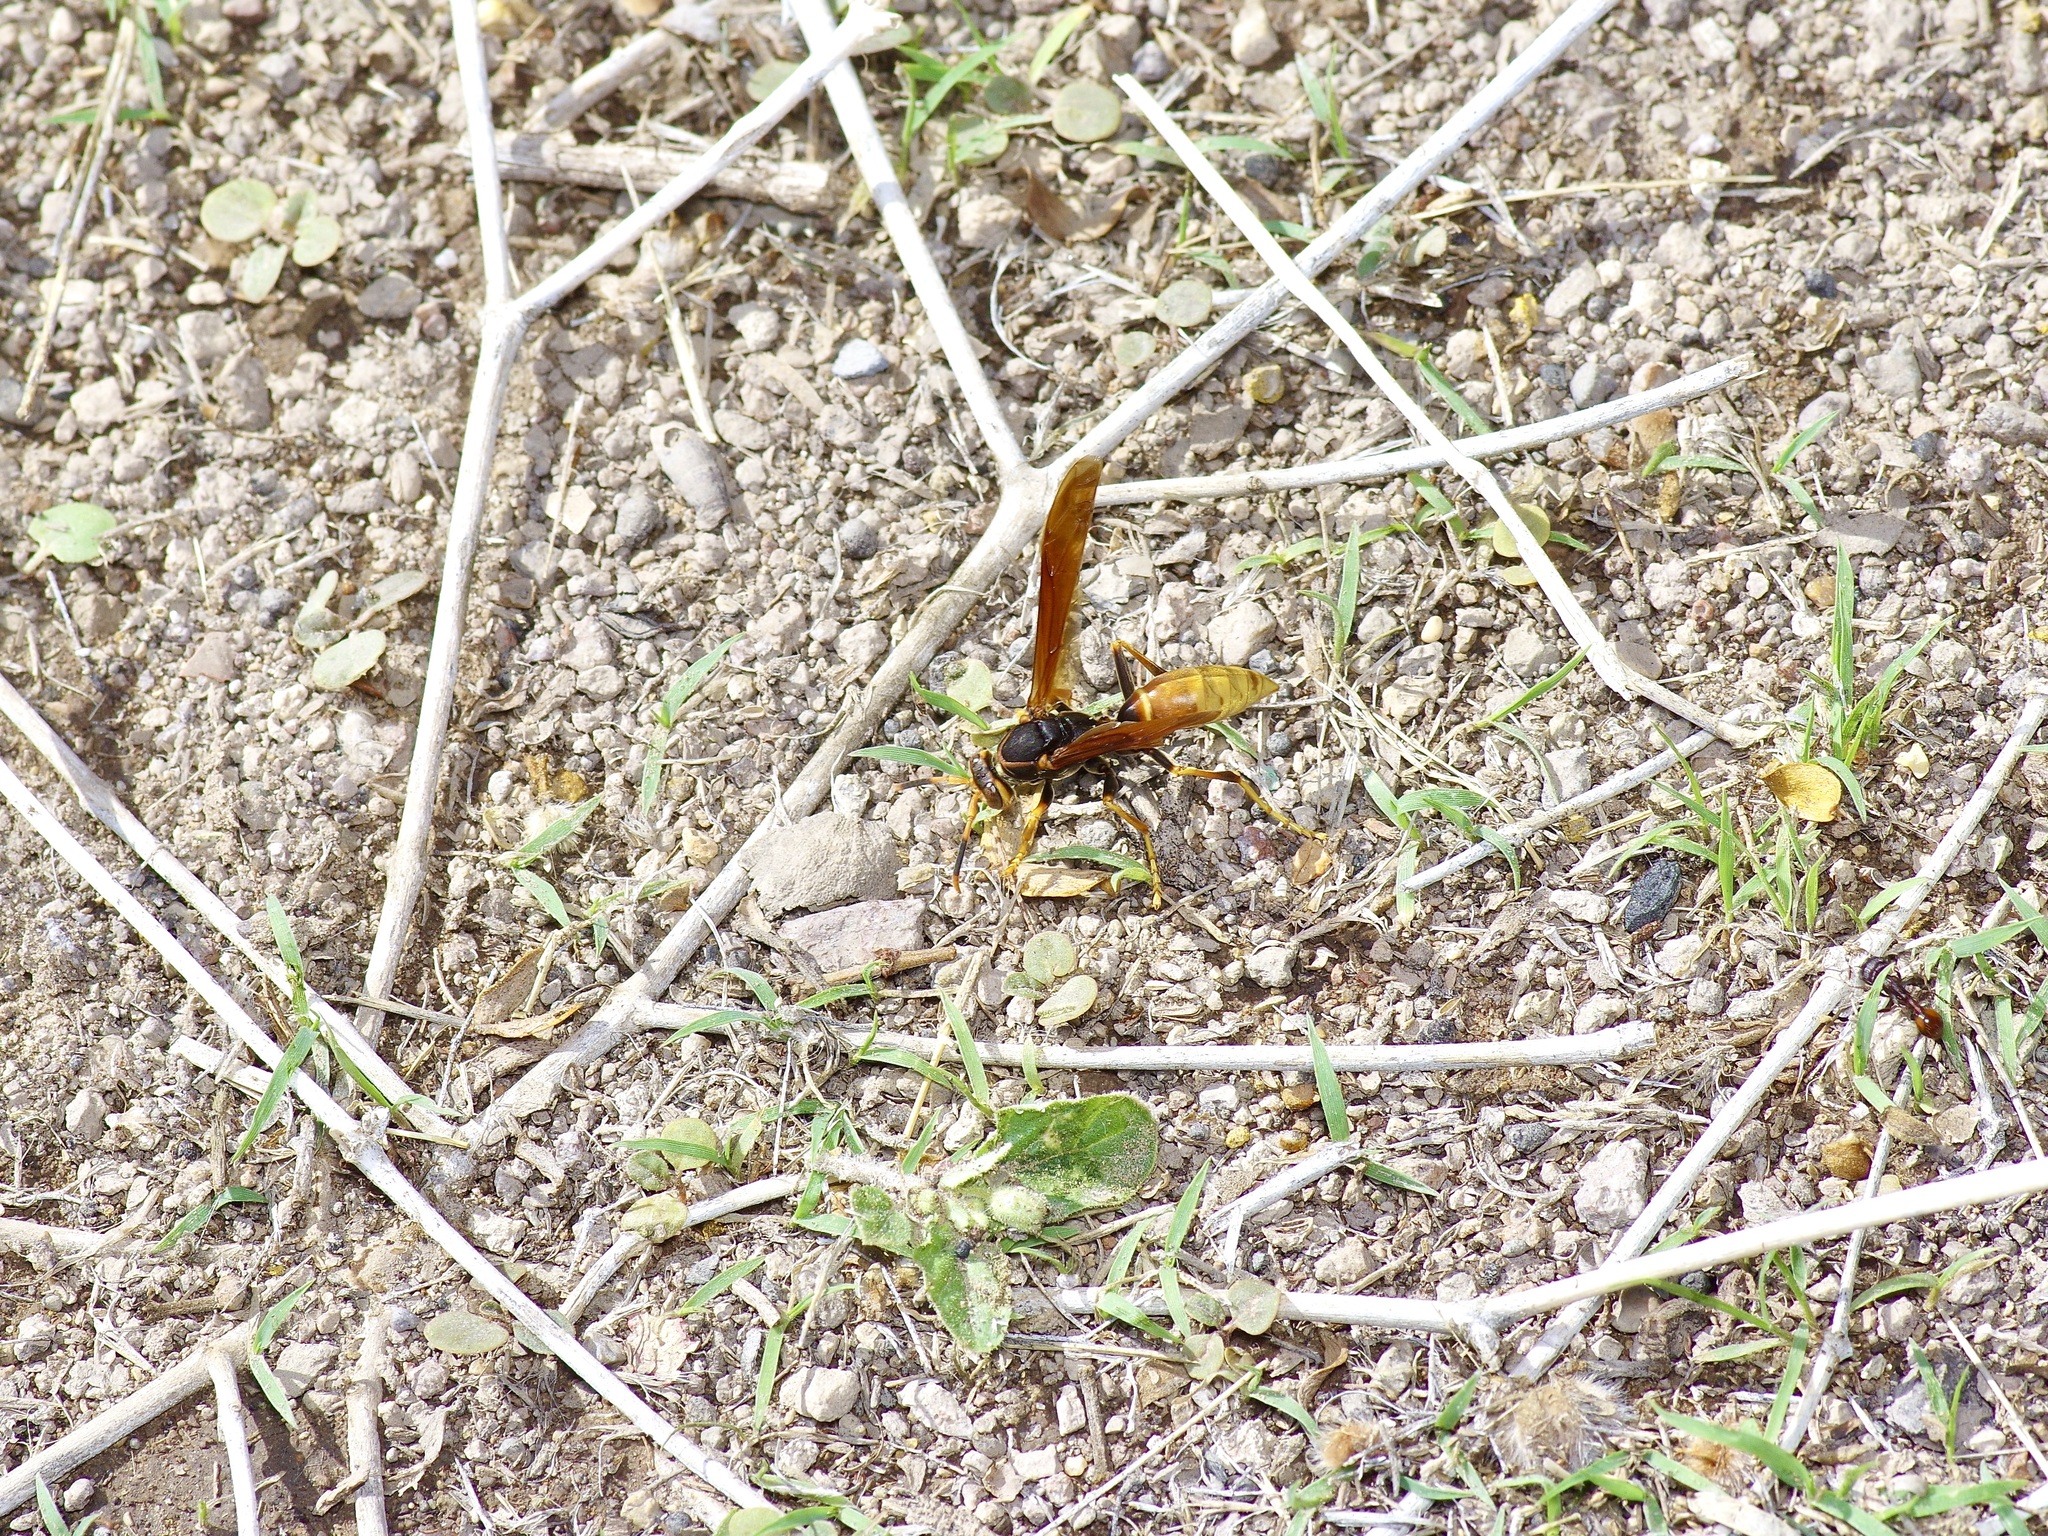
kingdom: Animalia
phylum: Arthropoda
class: Insecta
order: Hymenoptera
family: Eumenidae
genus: Polistes
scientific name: Polistes comanchus
